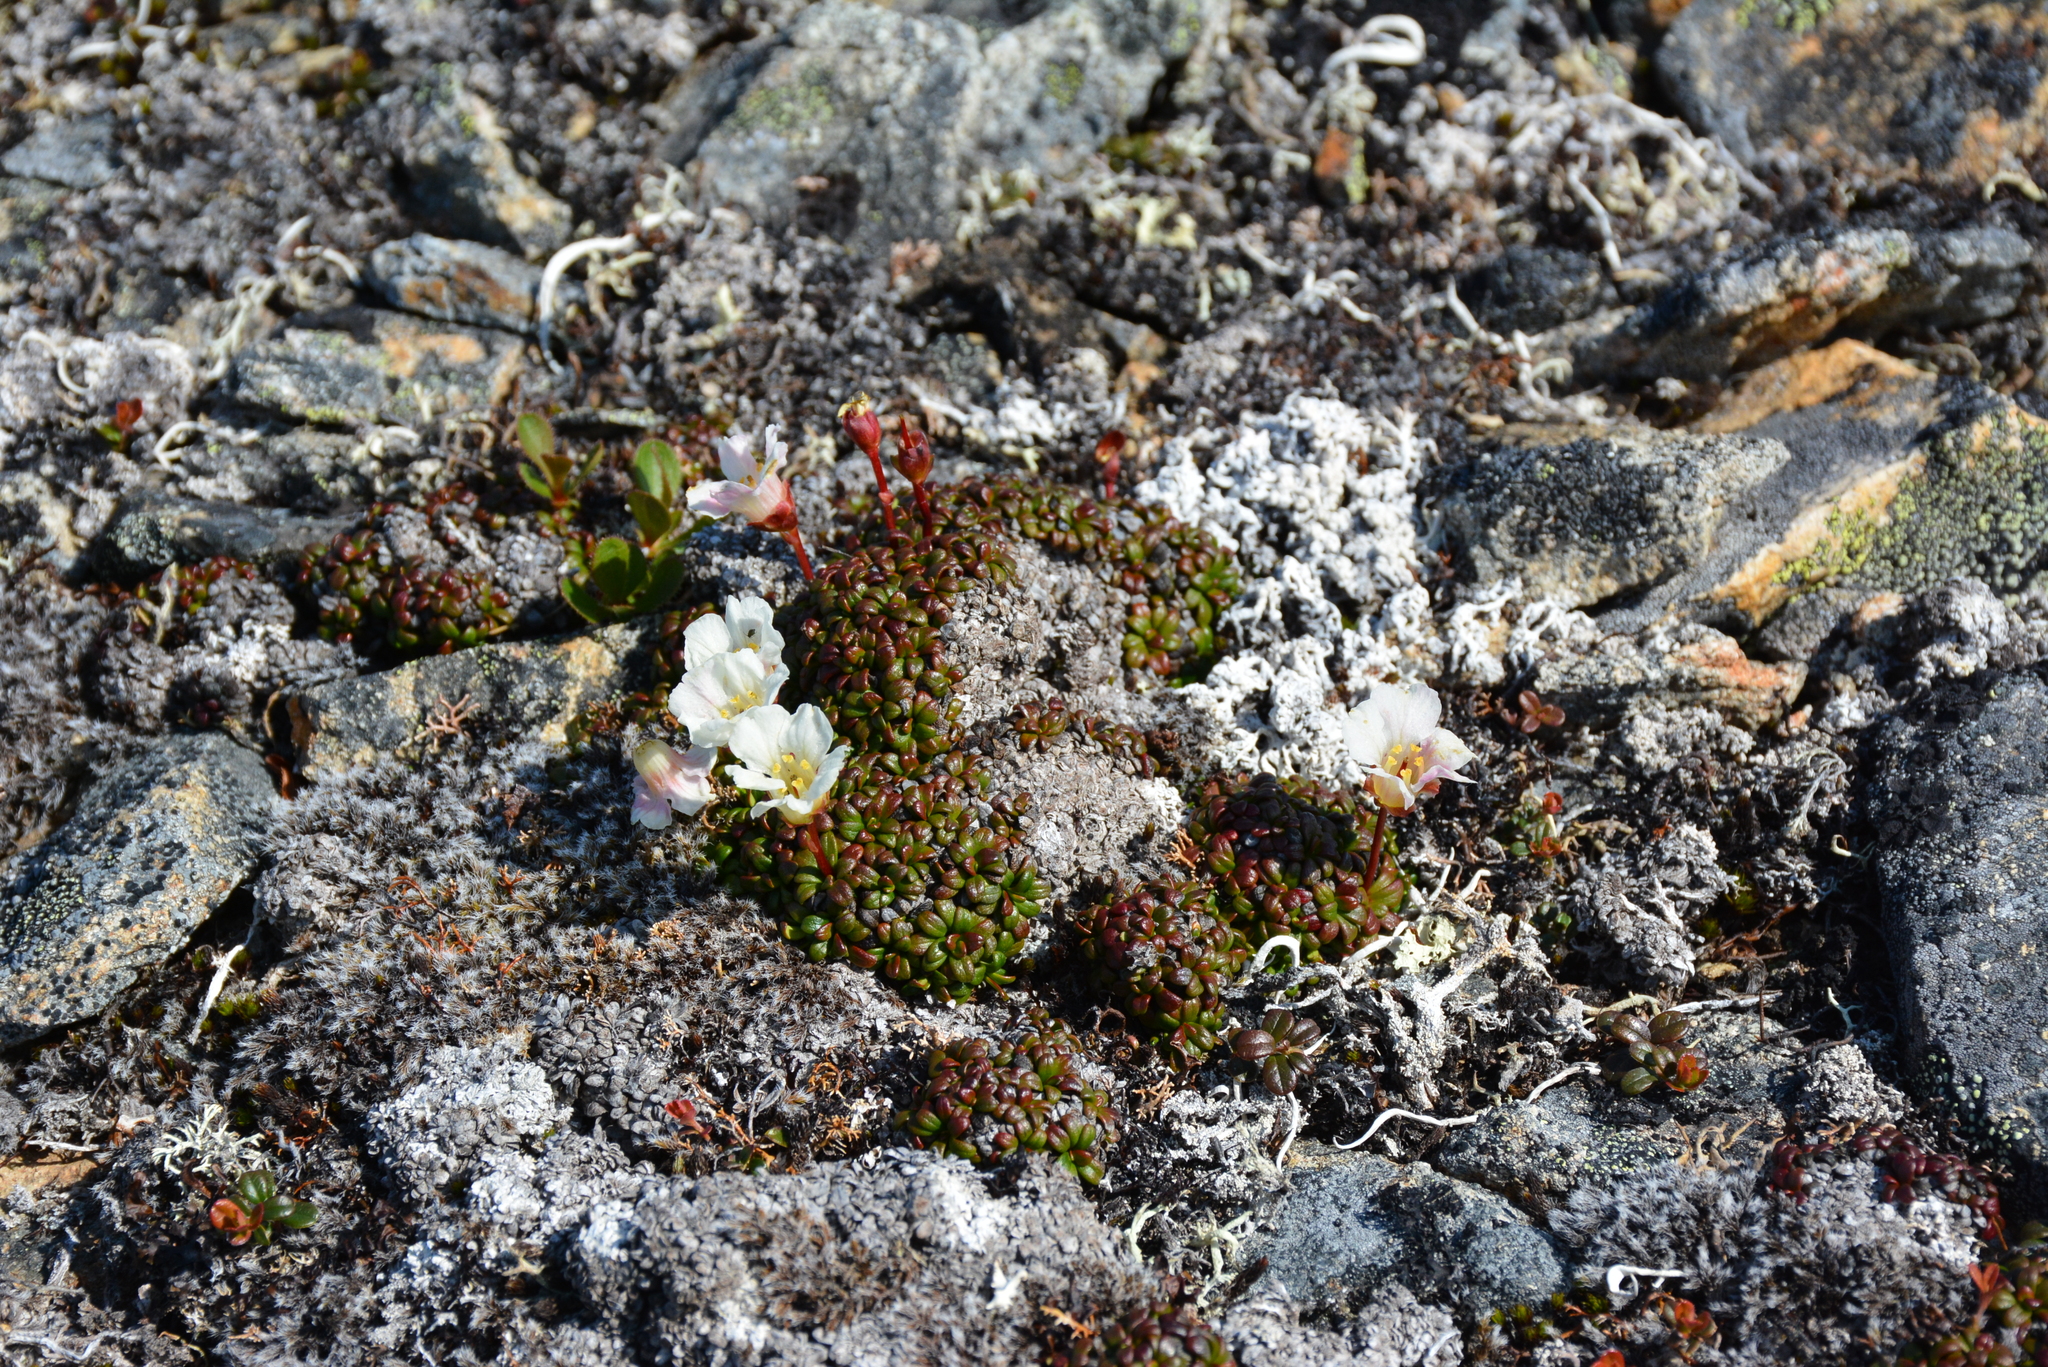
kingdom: Plantae
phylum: Tracheophyta
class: Magnoliopsida
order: Ericales
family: Diapensiaceae
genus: Diapensia
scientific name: Diapensia obovata
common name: Alaska diapensia
